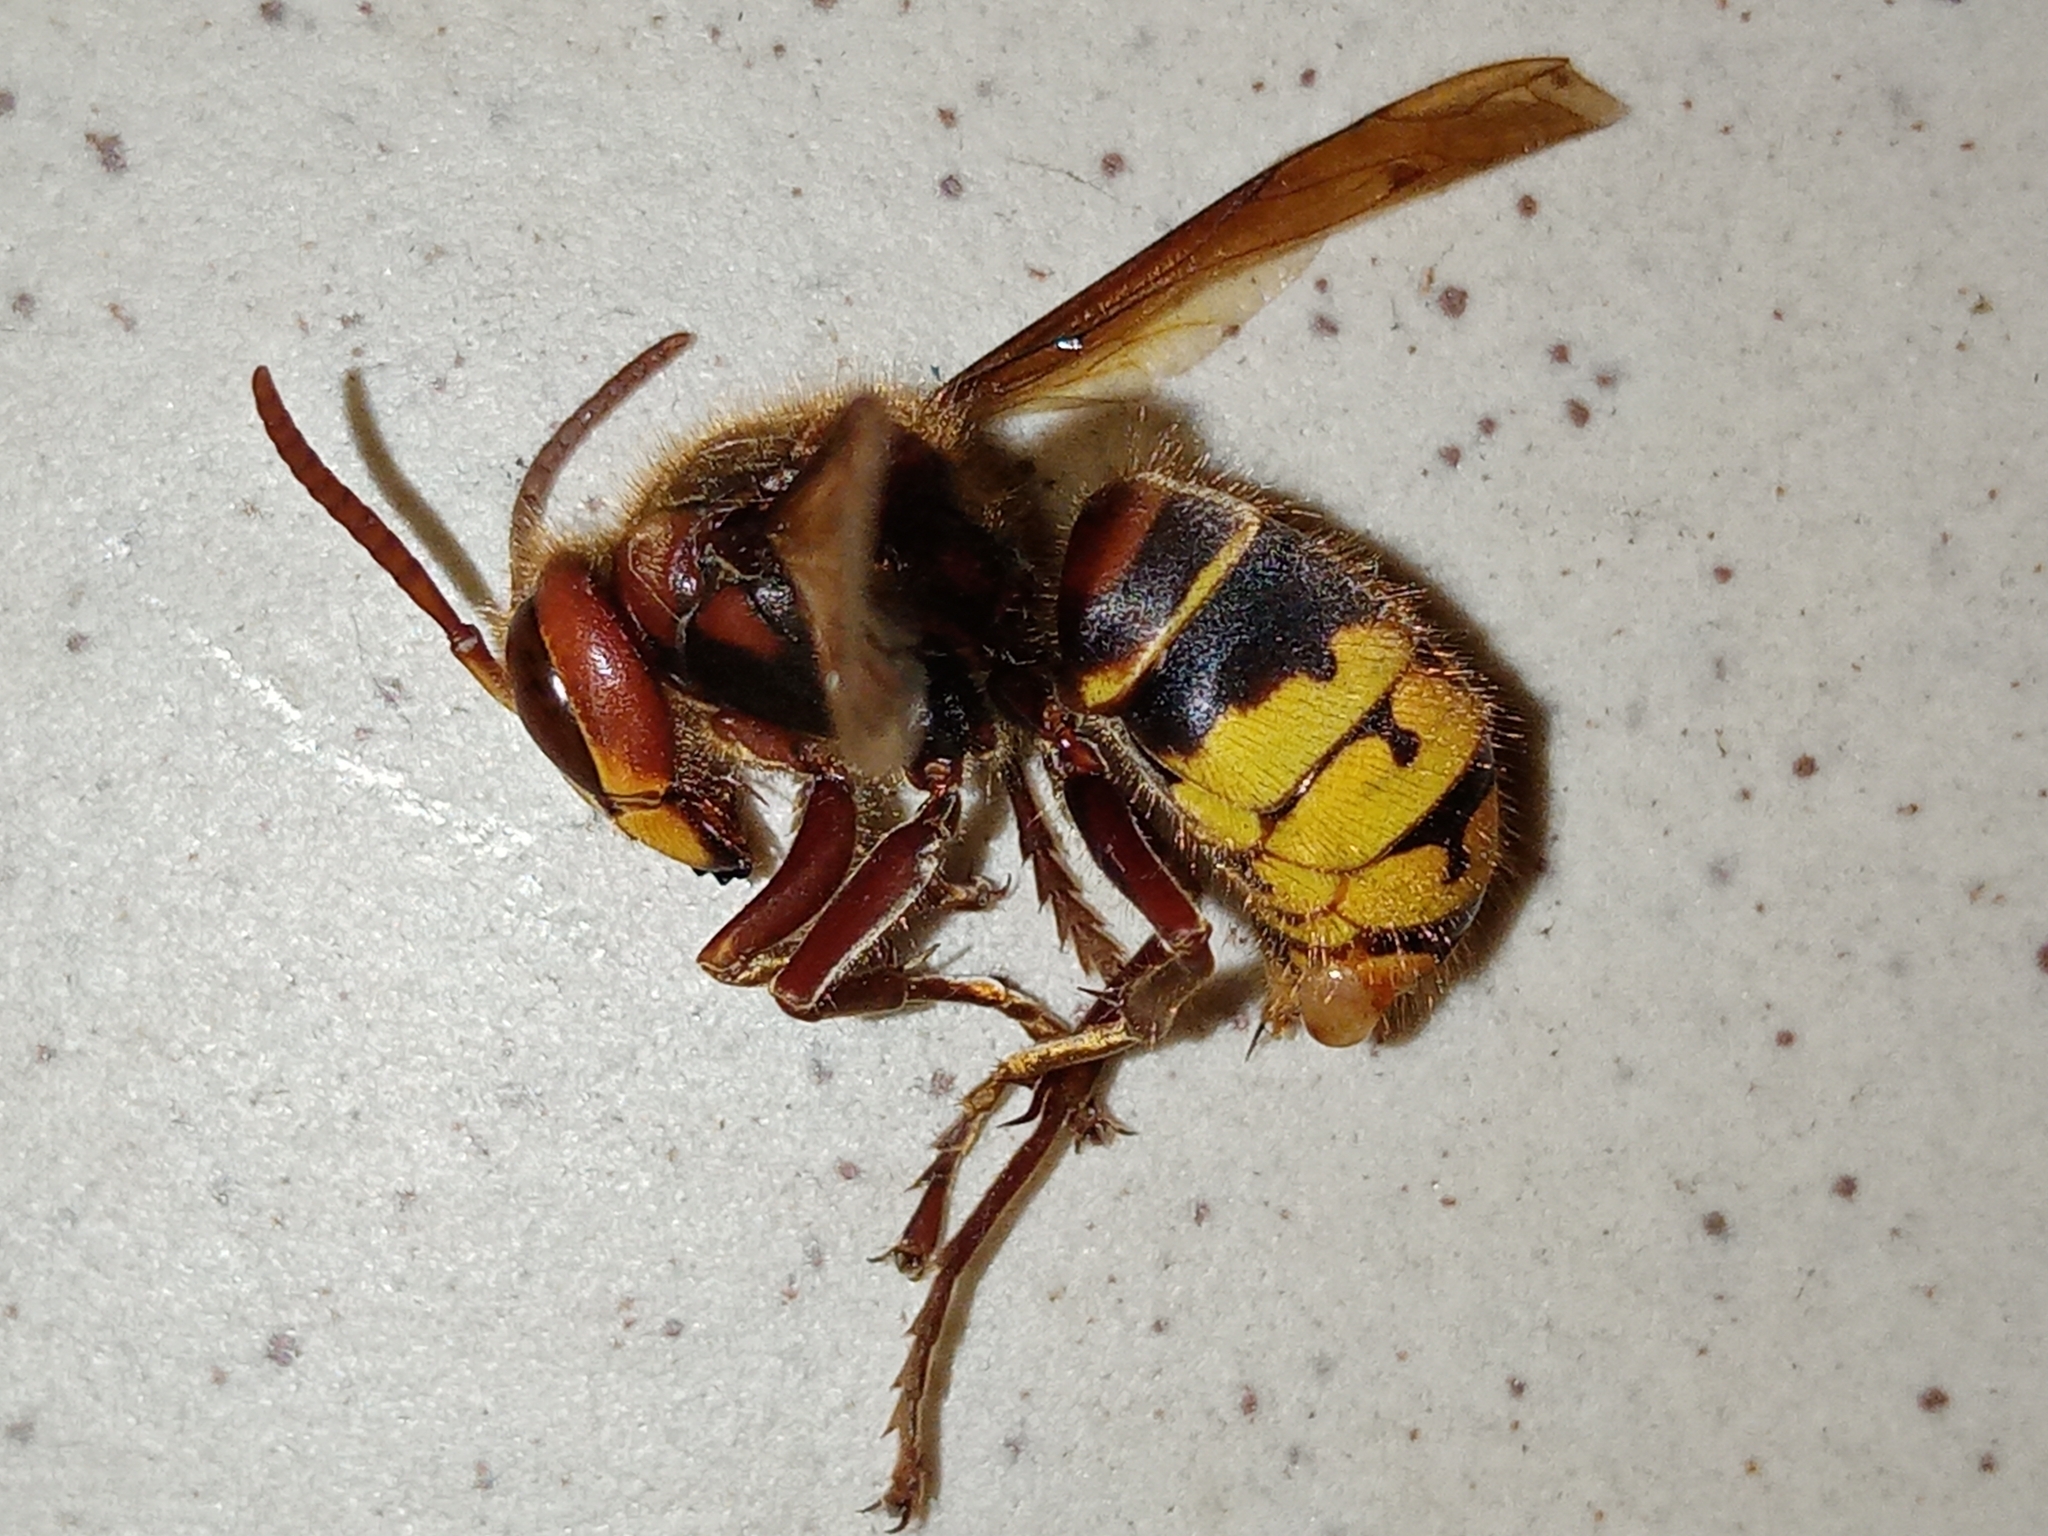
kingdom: Animalia
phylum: Arthropoda
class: Insecta
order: Hymenoptera
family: Vespidae
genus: Vespa
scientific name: Vespa crabro
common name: Hornet
